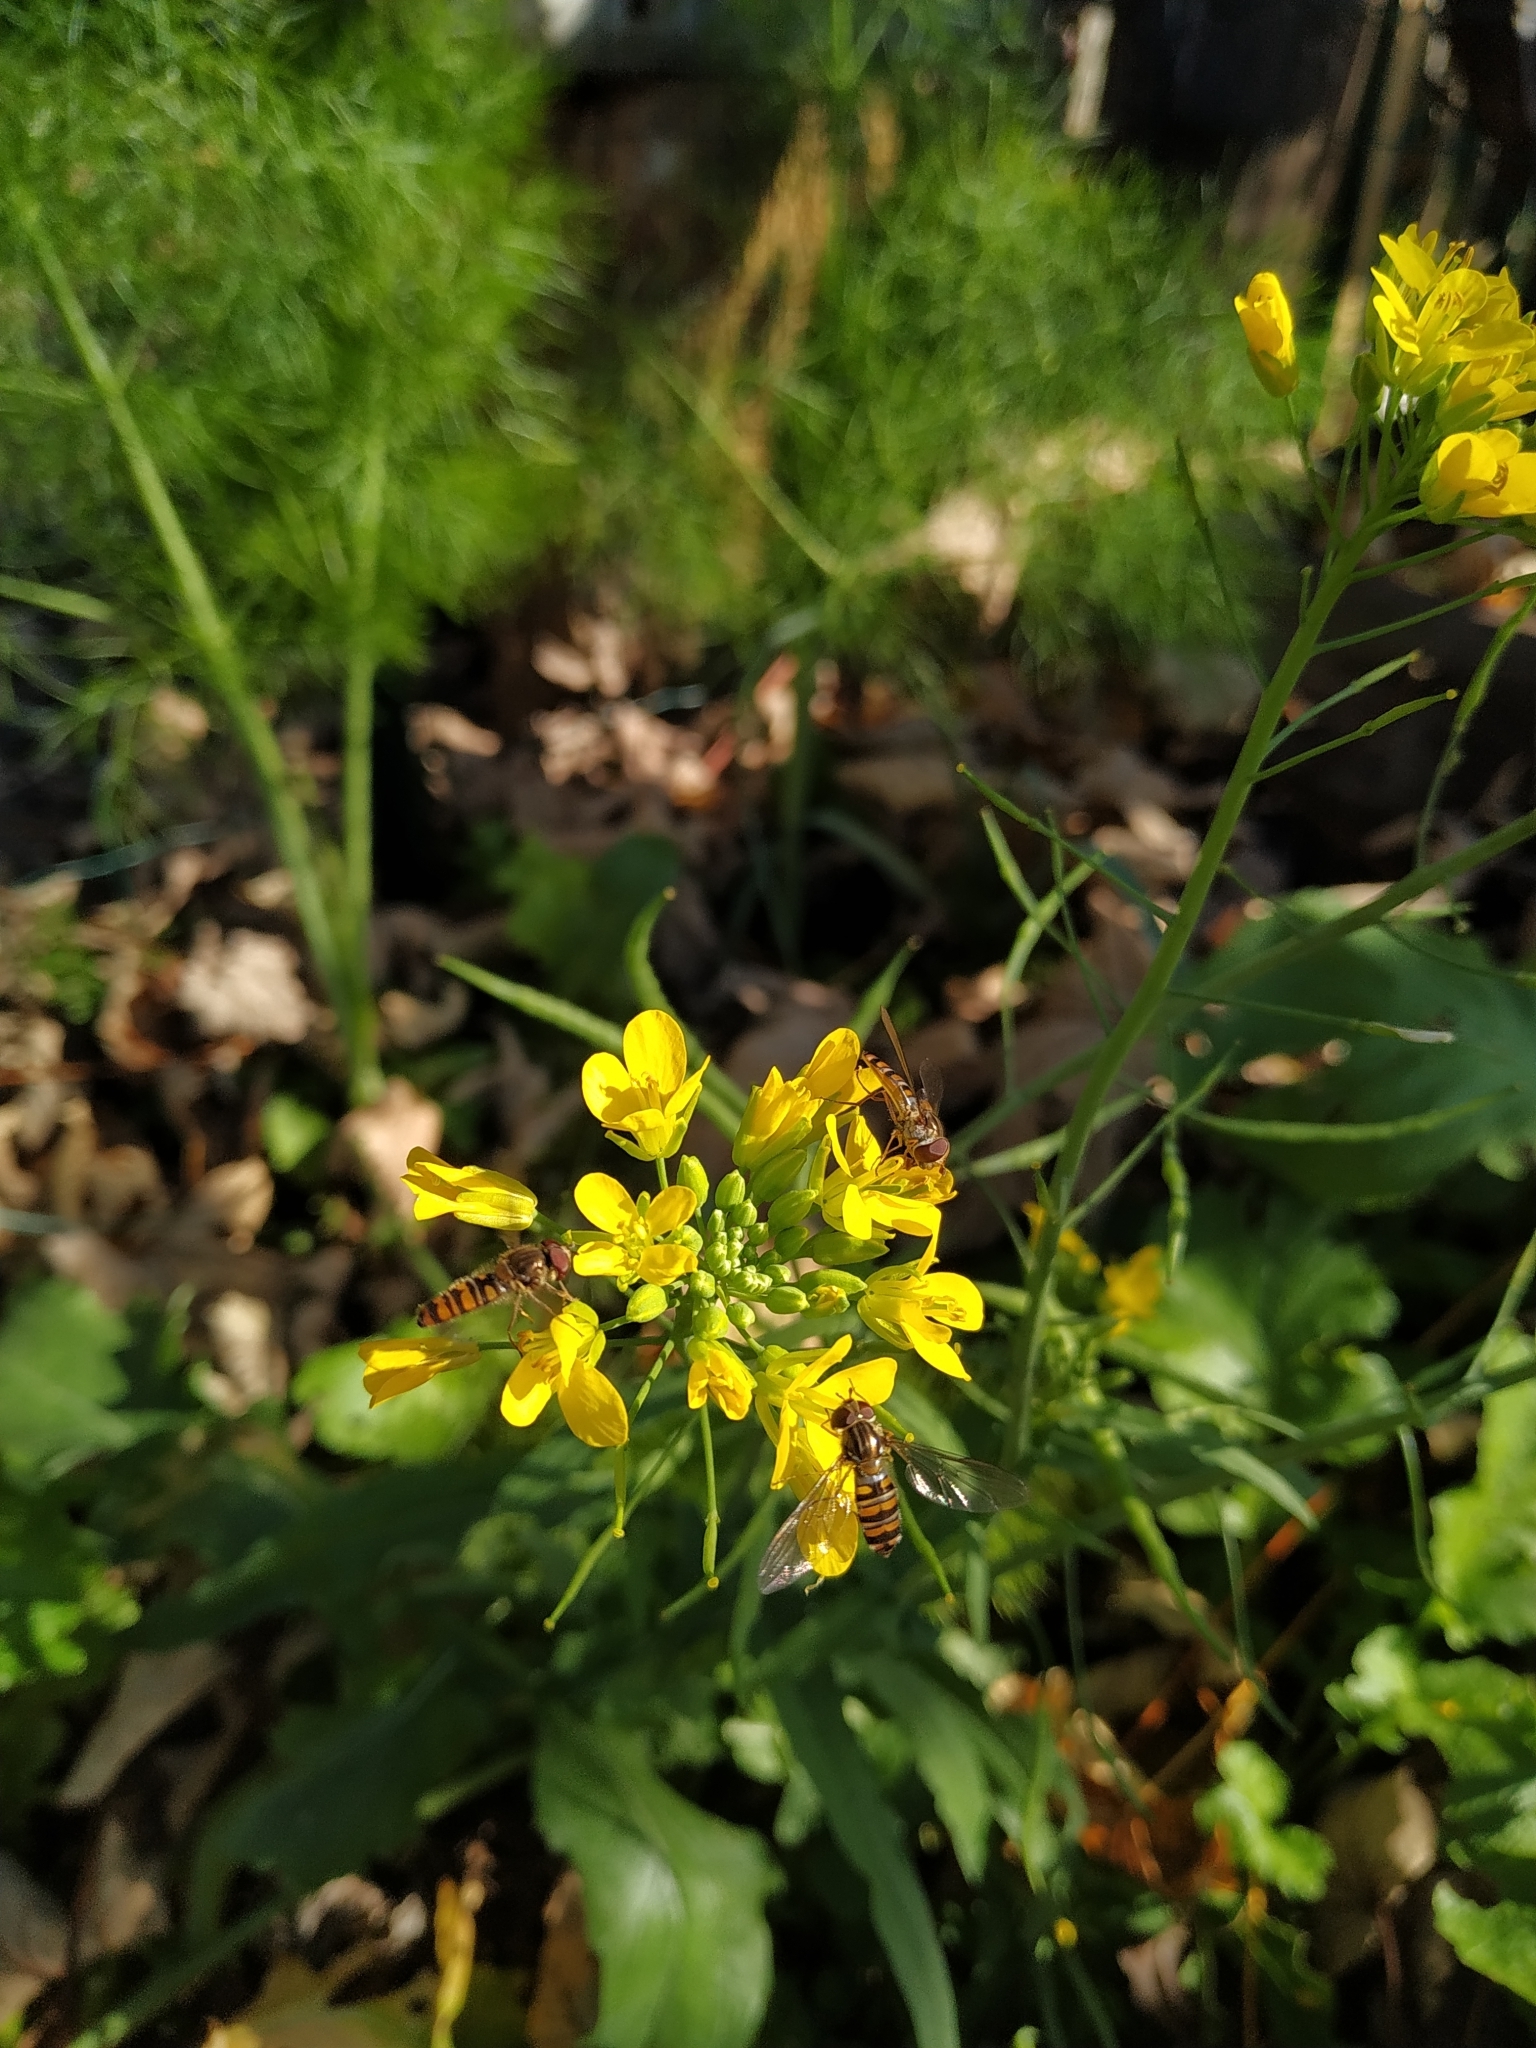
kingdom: Animalia
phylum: Arthropoda
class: Insecta
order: Diptera
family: Syrphidae
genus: Episyrphus
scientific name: Episyrphus balteatus
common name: Marmalade hoverfly
